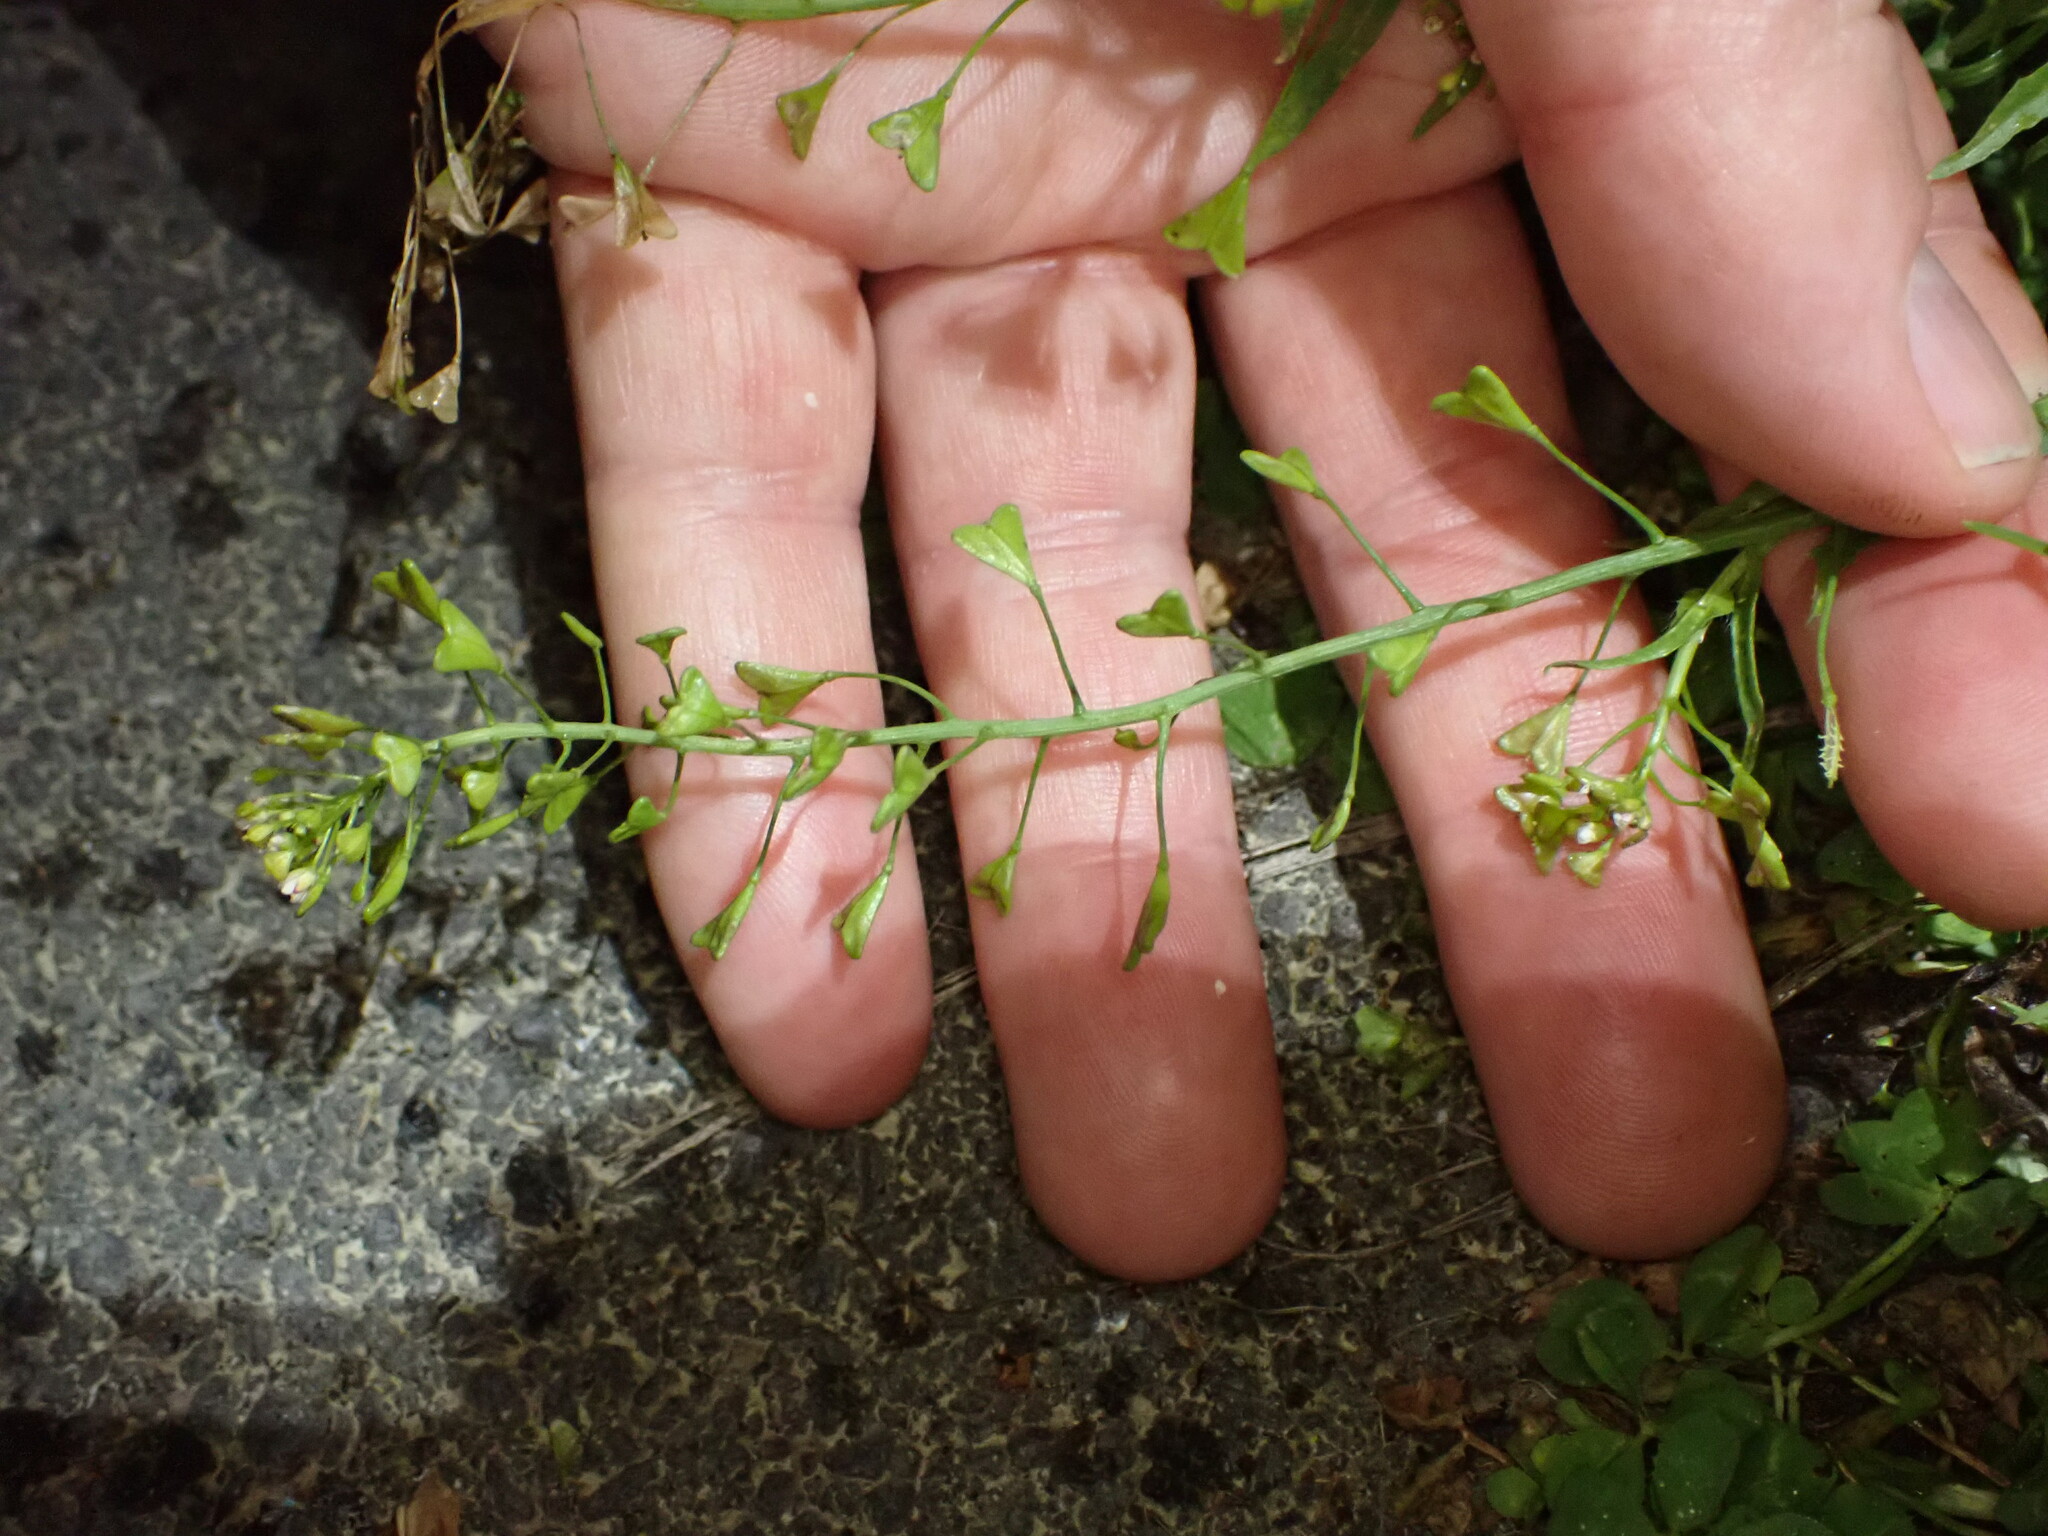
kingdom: Plantae
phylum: Tracheophyta
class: Magnoliopsida
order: Brassicales
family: Brassicaceae
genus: Capsella
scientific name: Capsella bursa-pastoris
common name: Shepherd's purse
